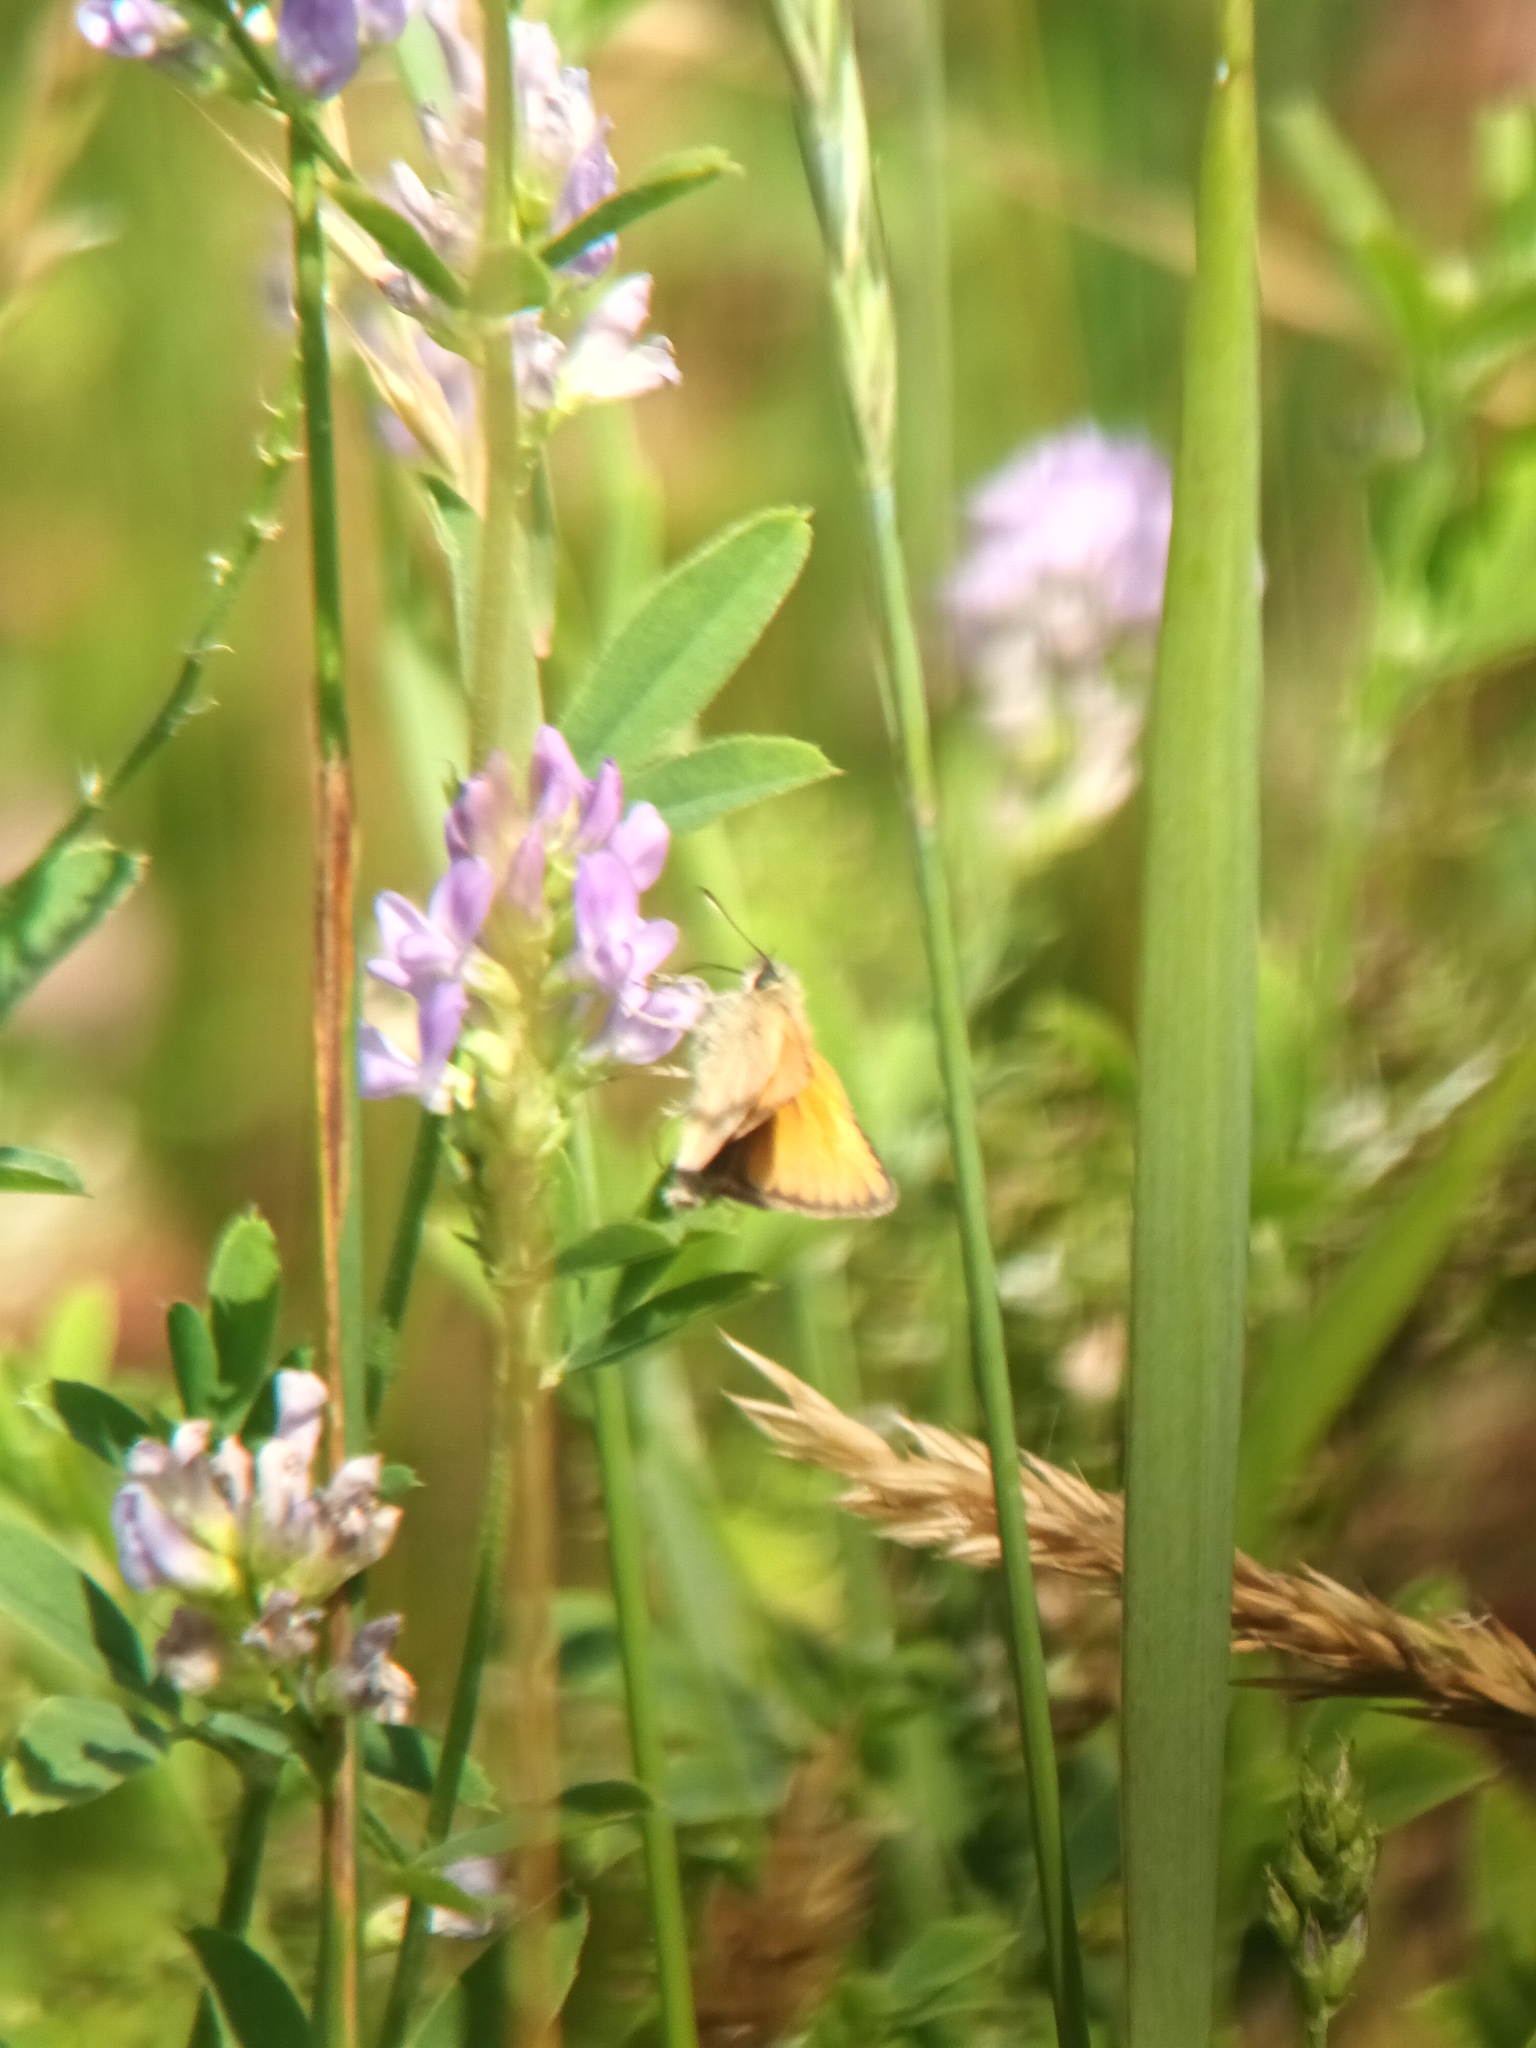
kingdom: Animalia
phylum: Arthropoda
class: Insecta
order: Lepidoptera
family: Hesperiidae
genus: Thymelicus
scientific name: Thymelicus lineola
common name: Essex skipper
